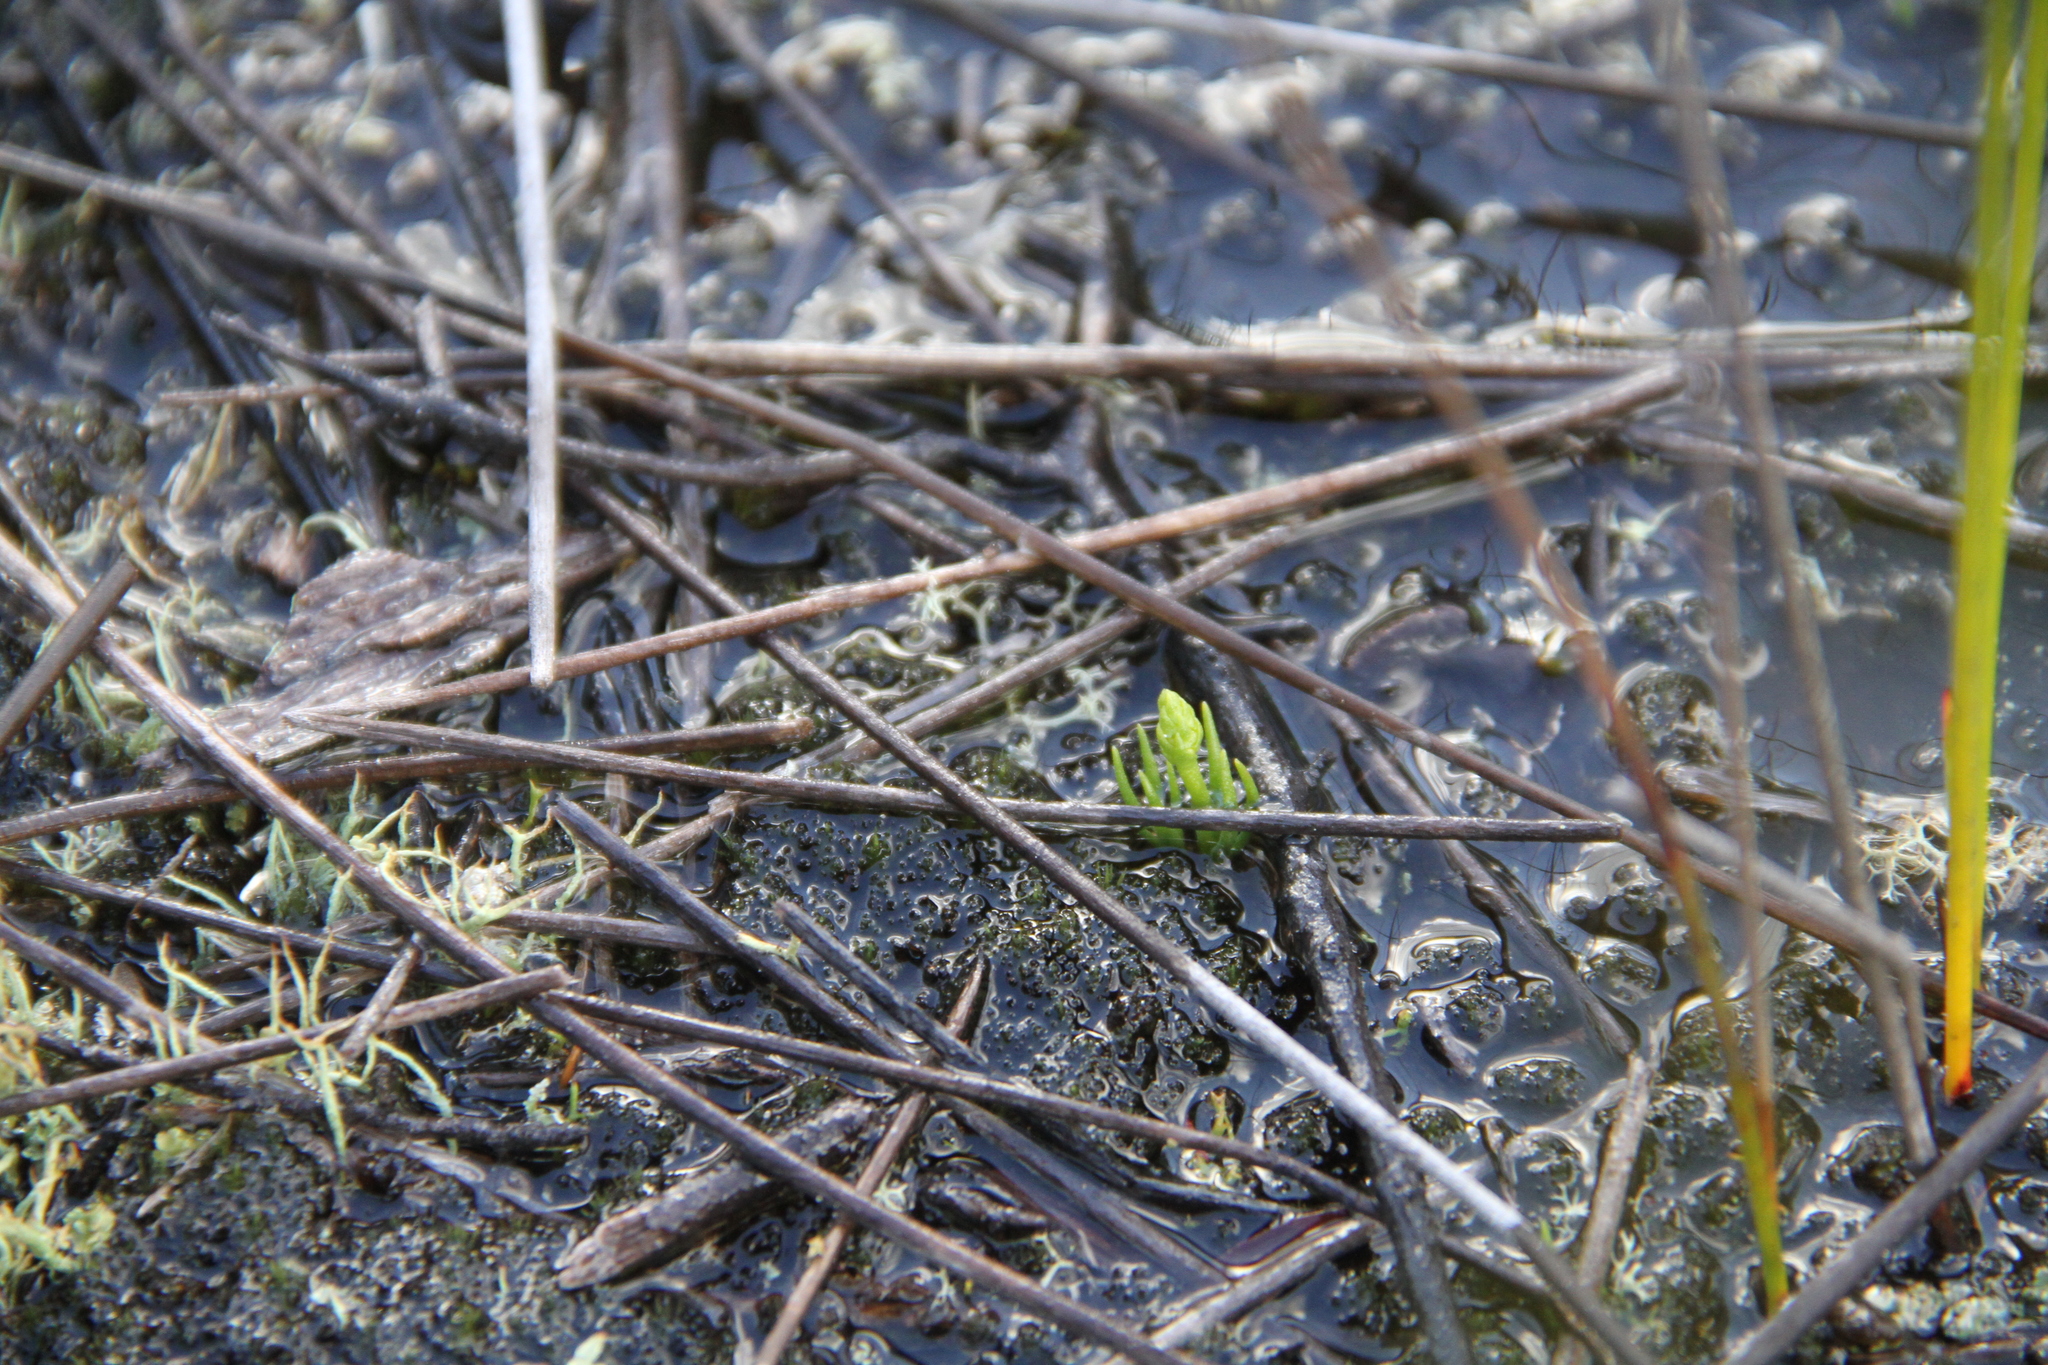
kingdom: Plantae
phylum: Tracheophyta
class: Lycopodiopsida
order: Lycopodiales
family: Lycopodiaceae
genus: Phylloglossum
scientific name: Phylloglossum drummondii
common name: Pigmy-club-moss
